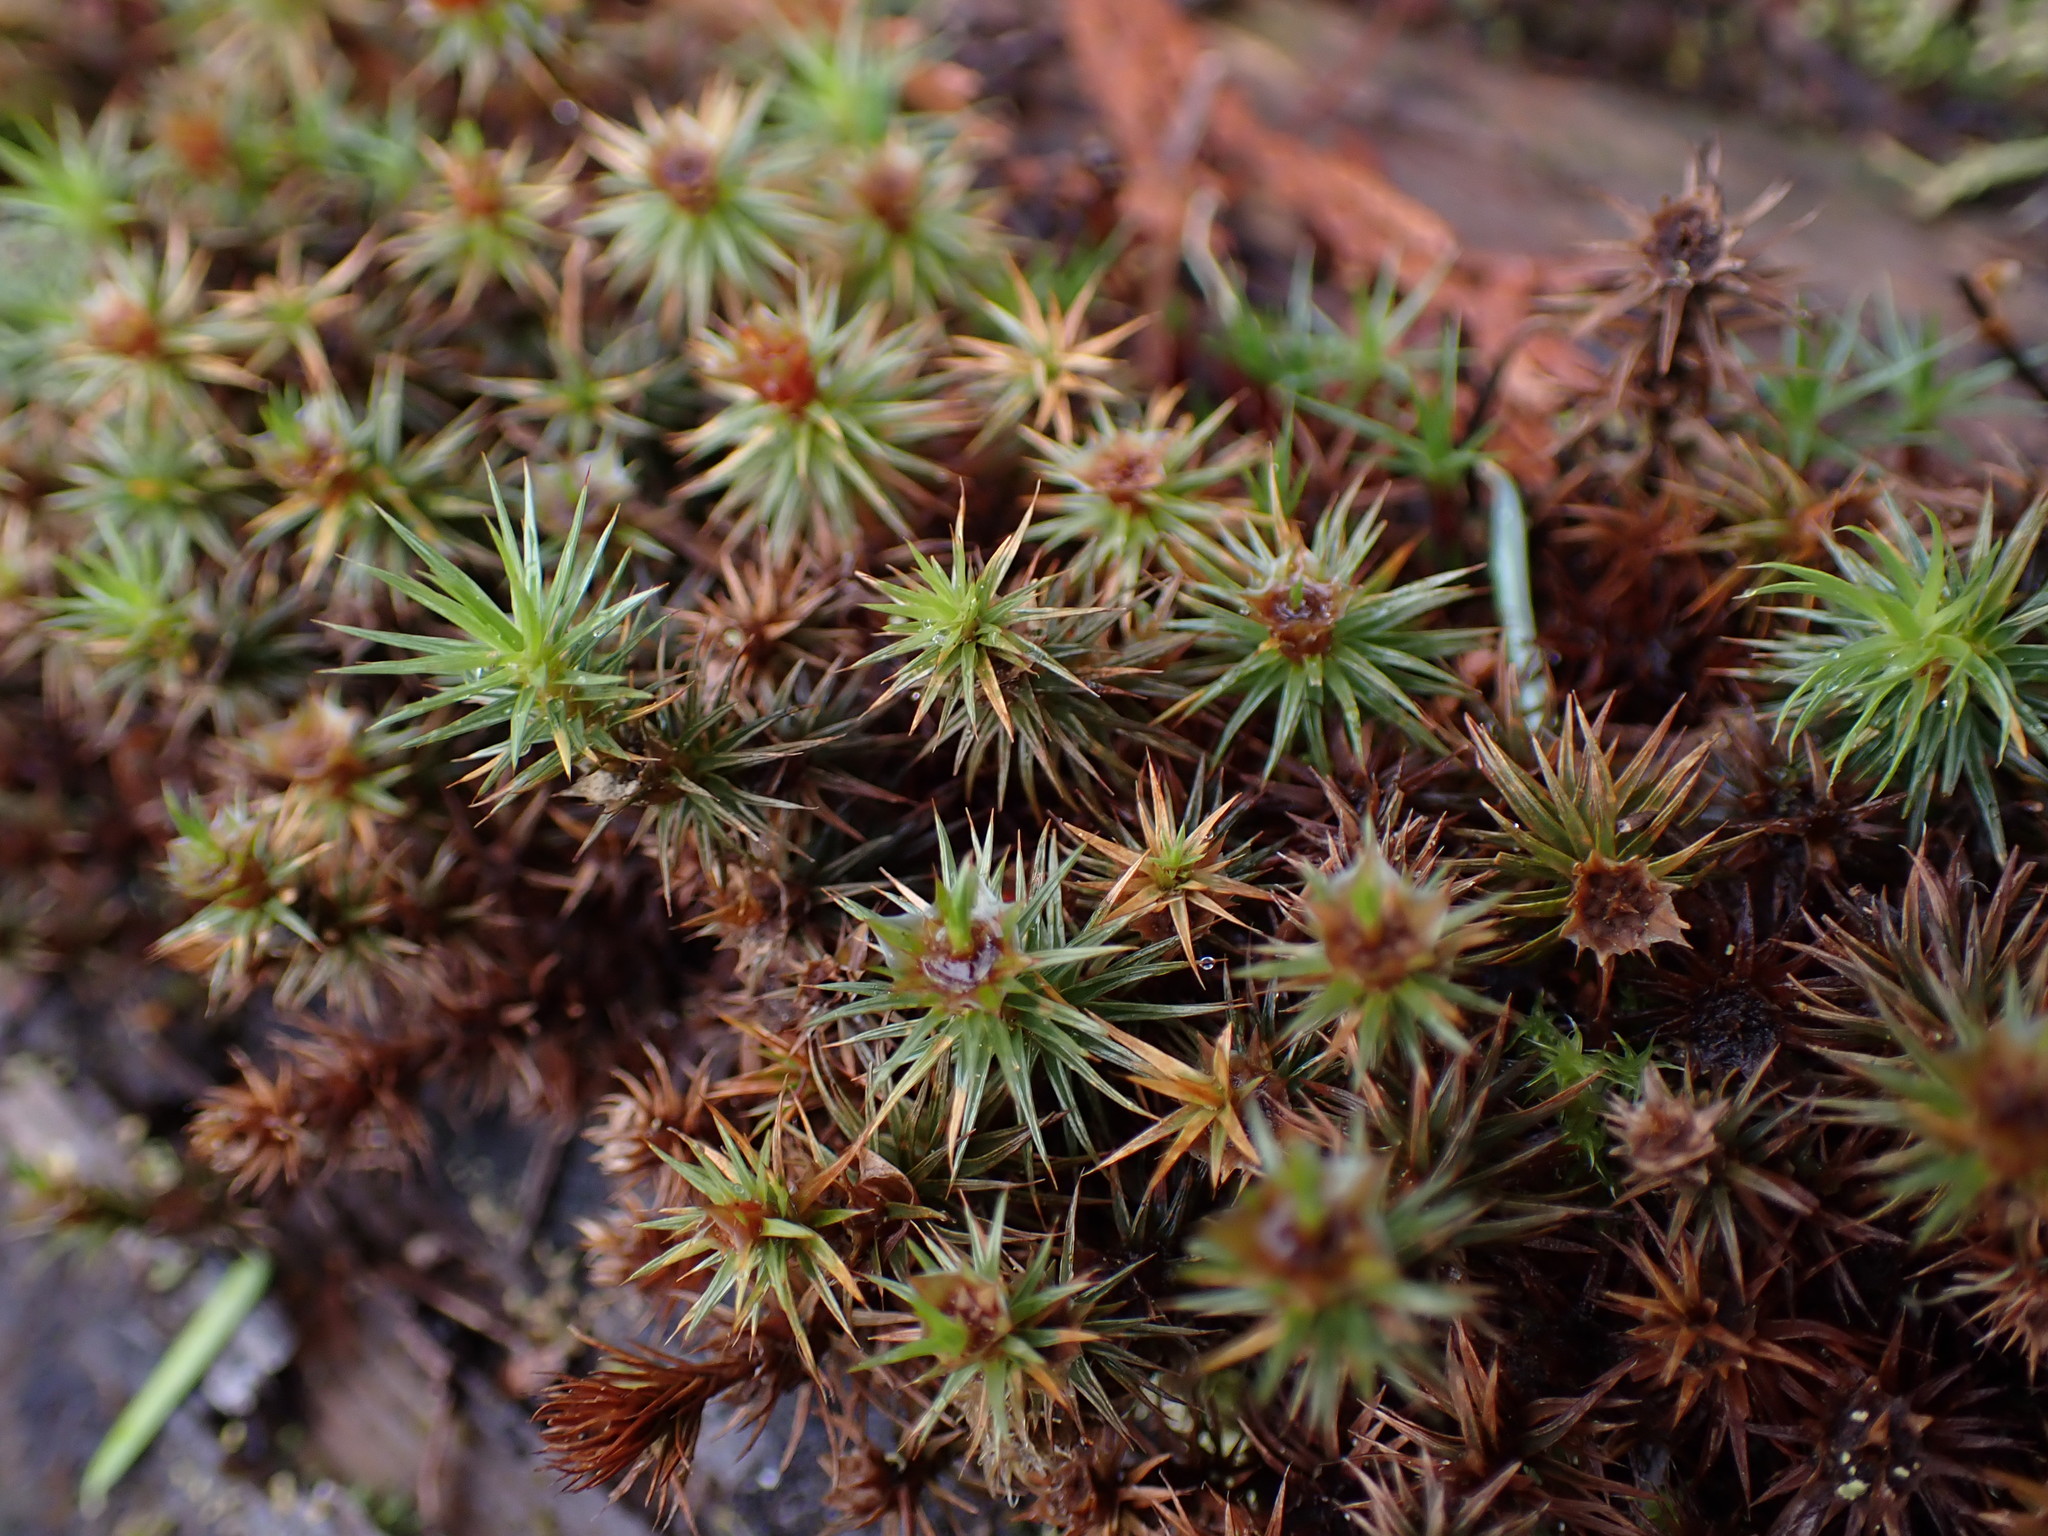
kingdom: Plantae
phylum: Bryophyta
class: Polytrichopsida
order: Polytrichales
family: Polytrichaceae
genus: Polytrichum
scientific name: Polytrichum juniperinum
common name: Juniper haircap moss
